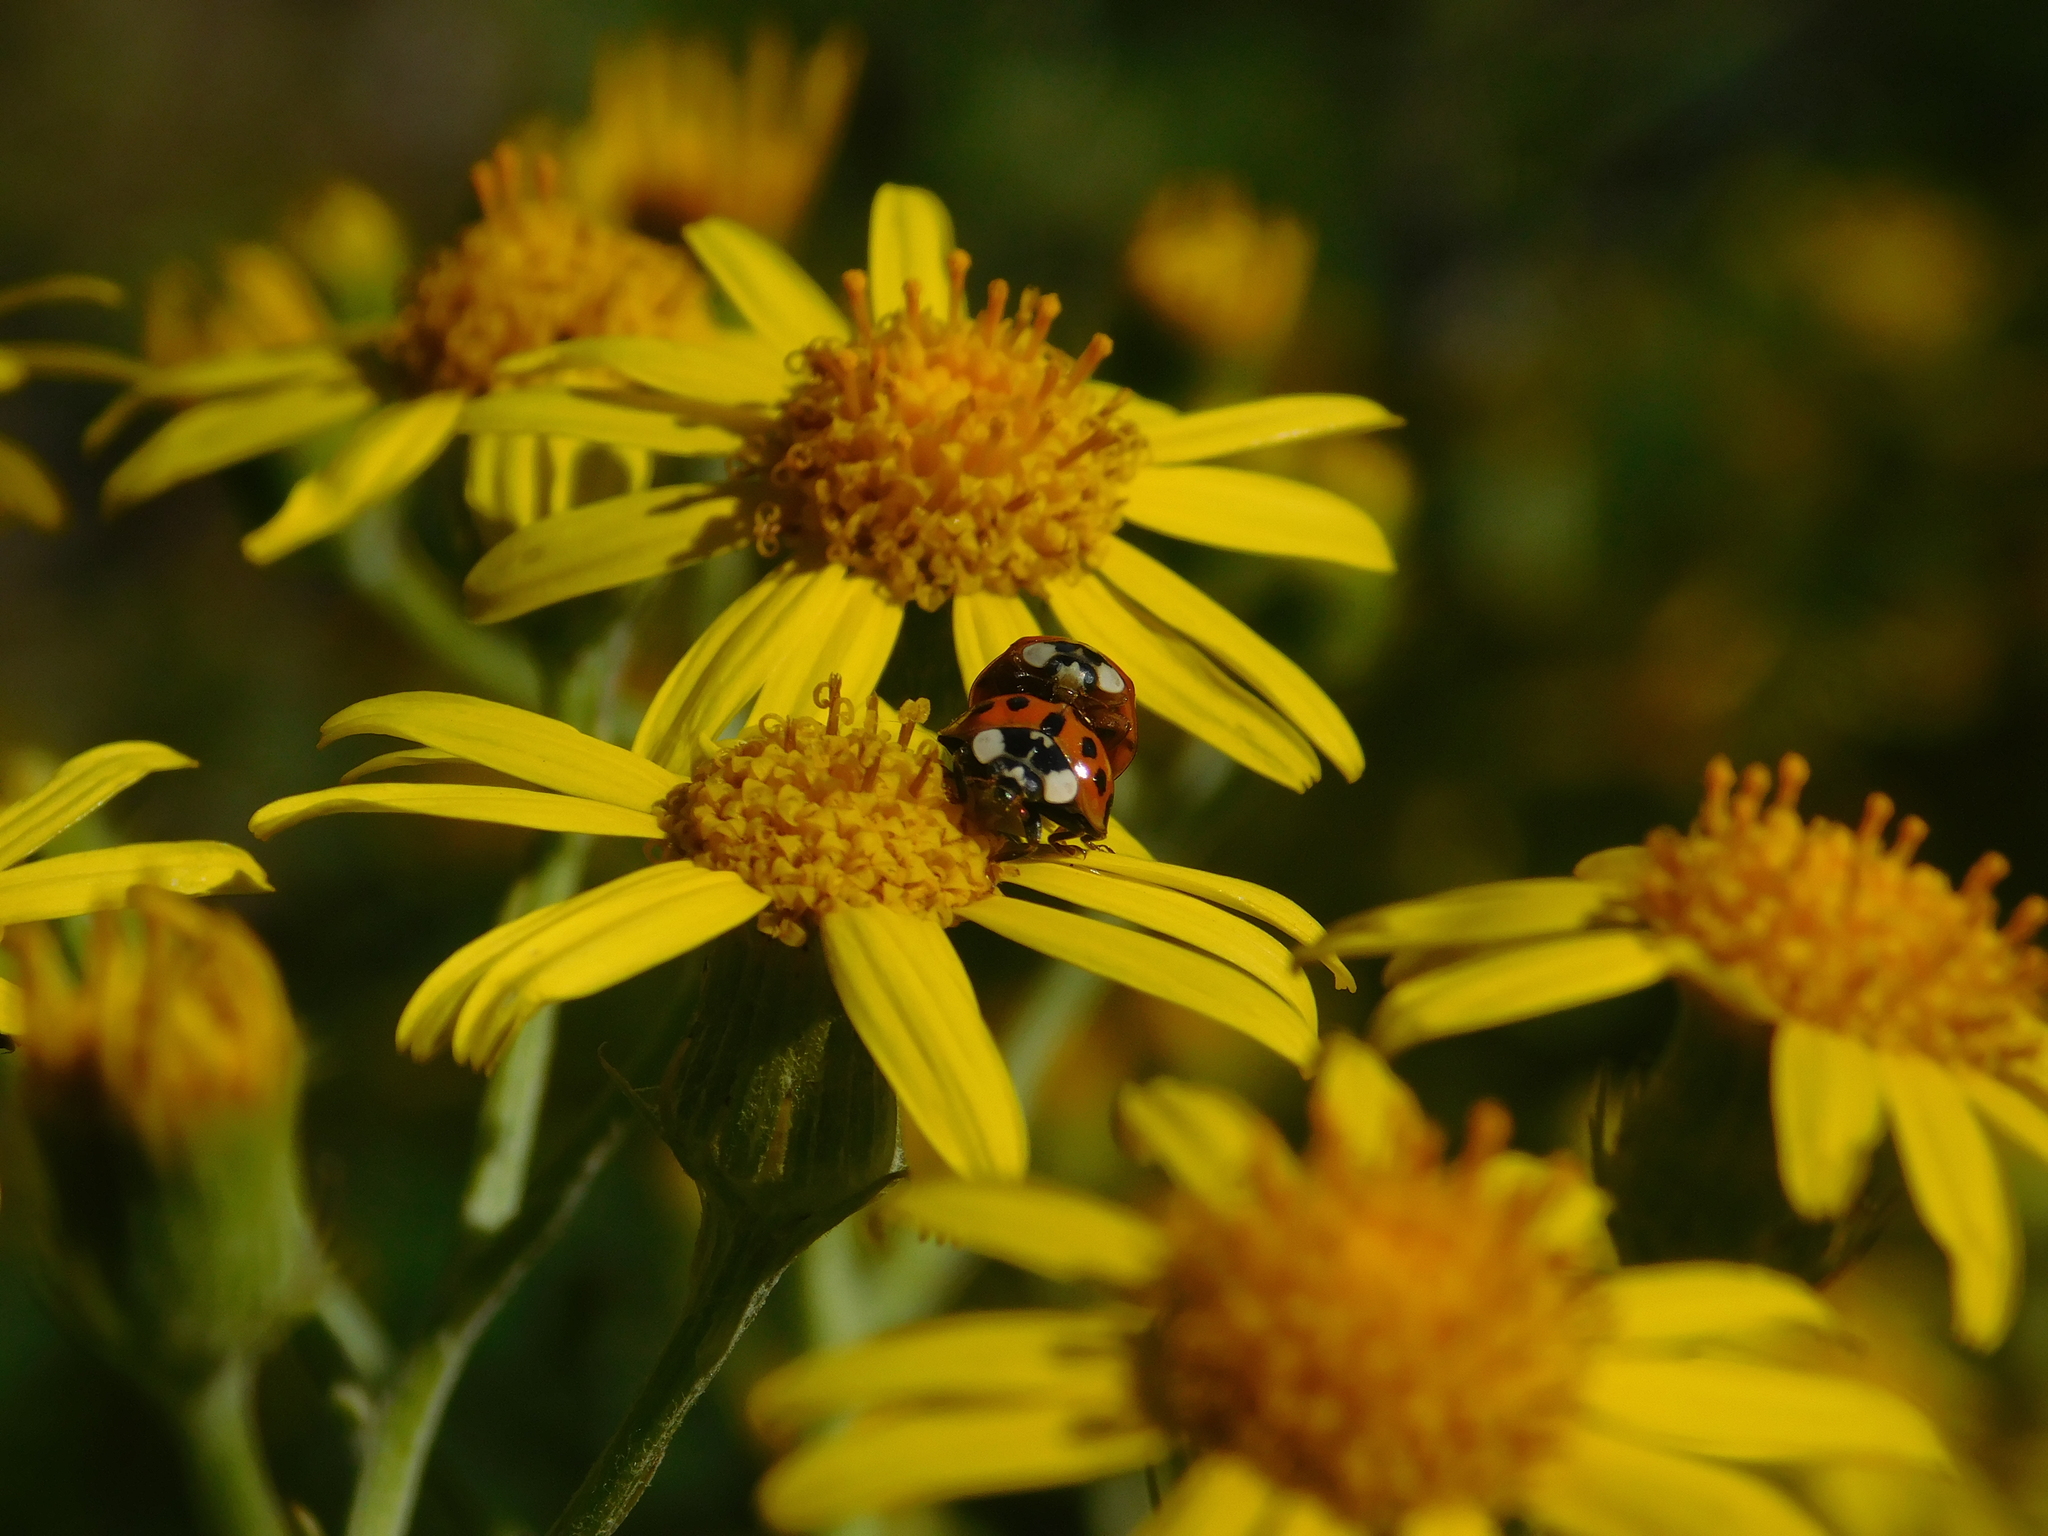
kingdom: Animalia
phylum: Arthropoda
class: Insecta
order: Coleoptera
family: Coccinellidae
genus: Harmonia
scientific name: Harmonia axyridis
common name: Harlequin ladybird
